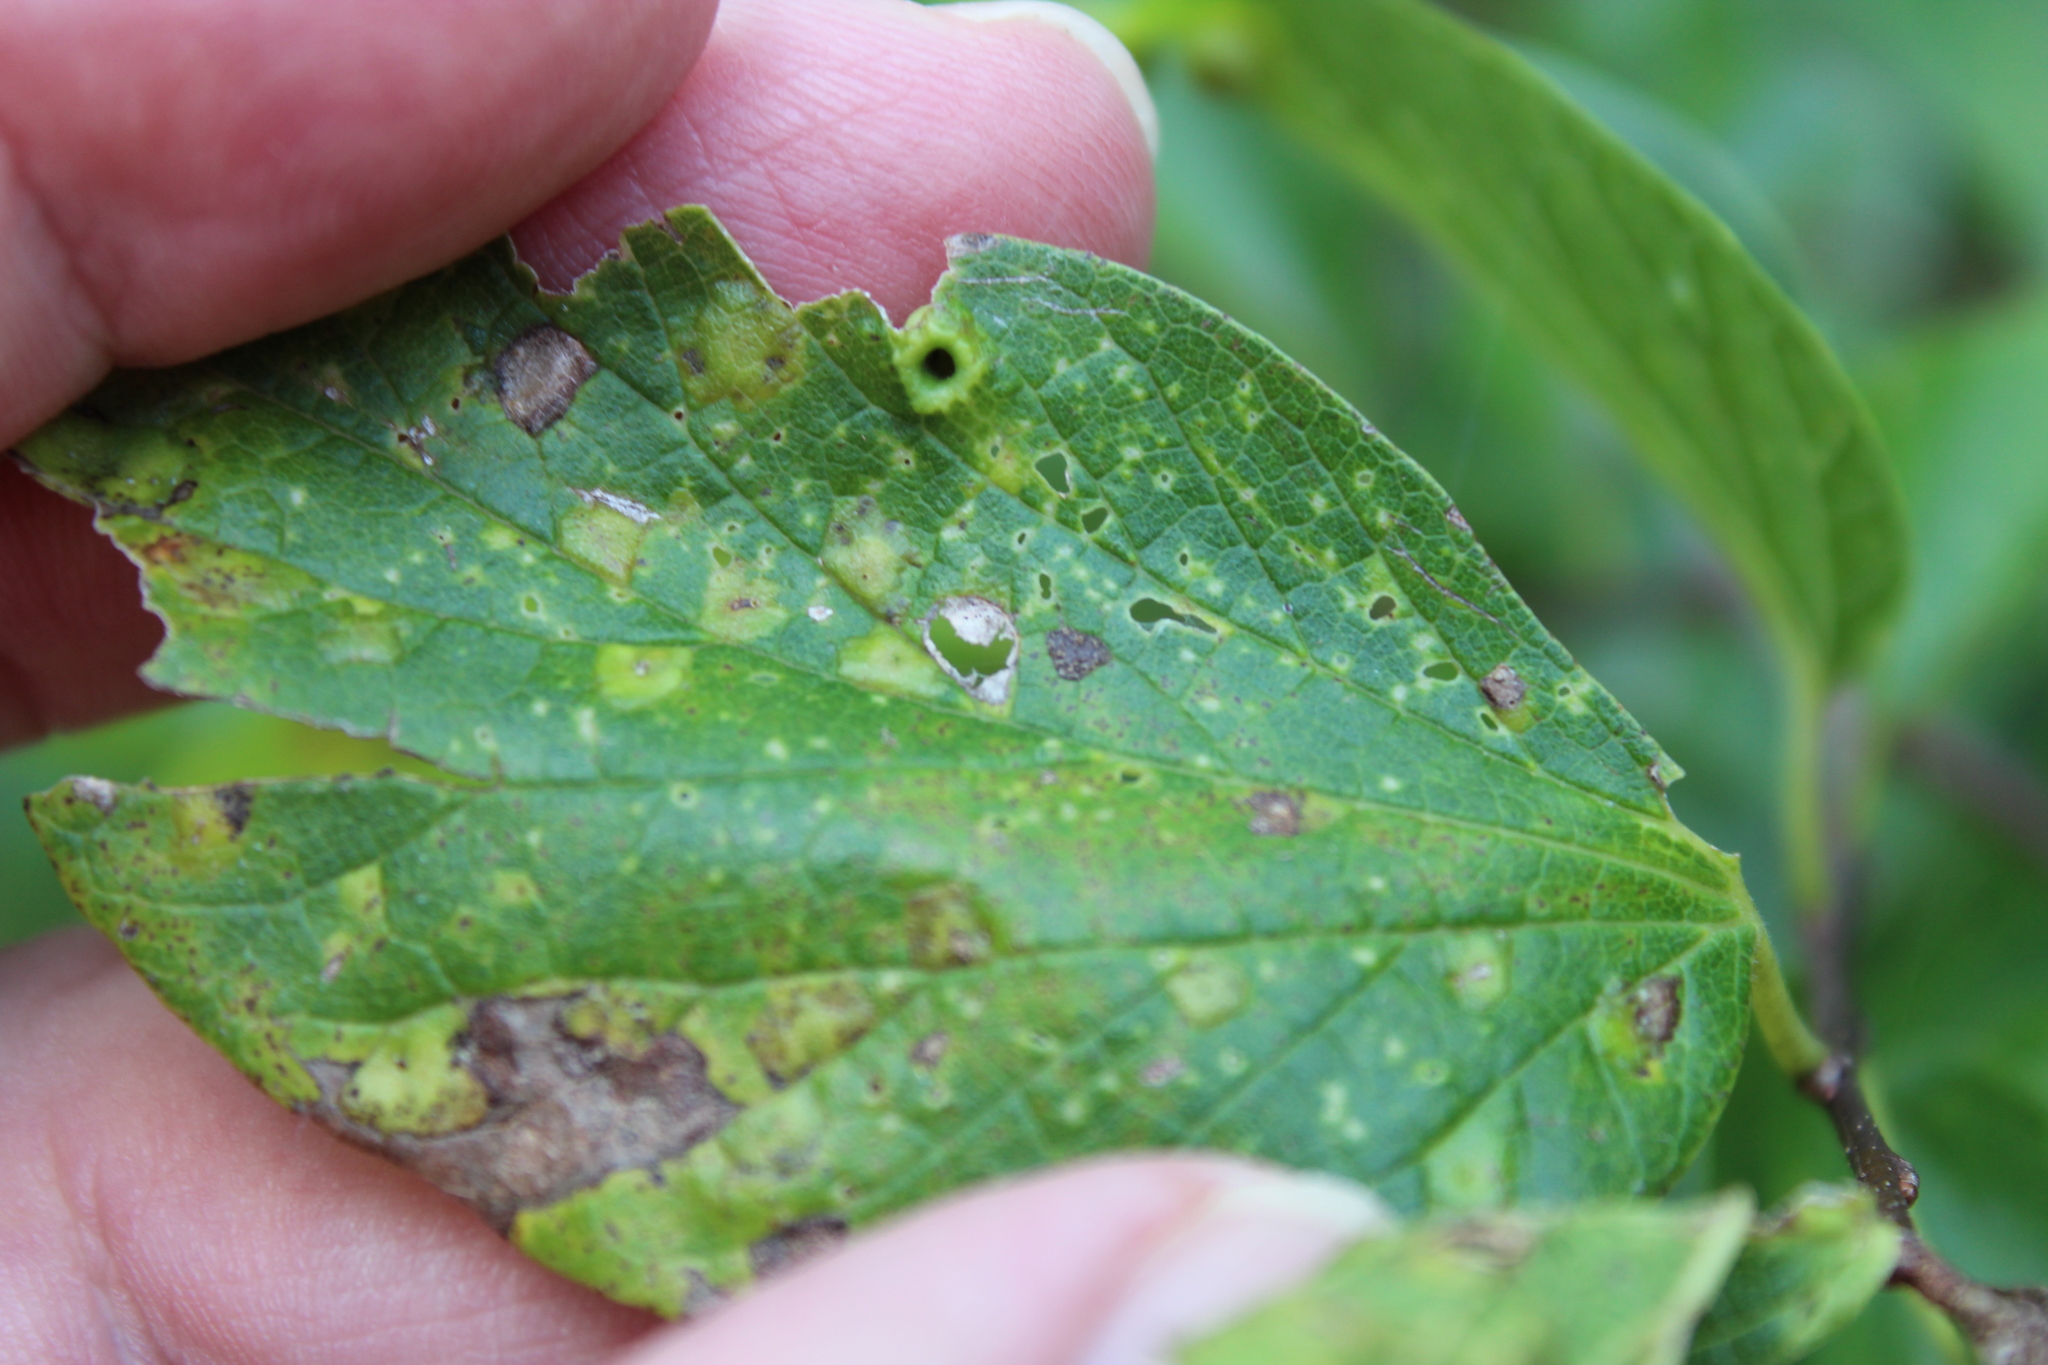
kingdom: Animalia
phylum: Arthropoda
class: Insecta
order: Hemiptera
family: Aphalaridae
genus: Pachypsylla
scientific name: Pachypsylla celtidismamma
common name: Hackberry nipplegall psyllid
